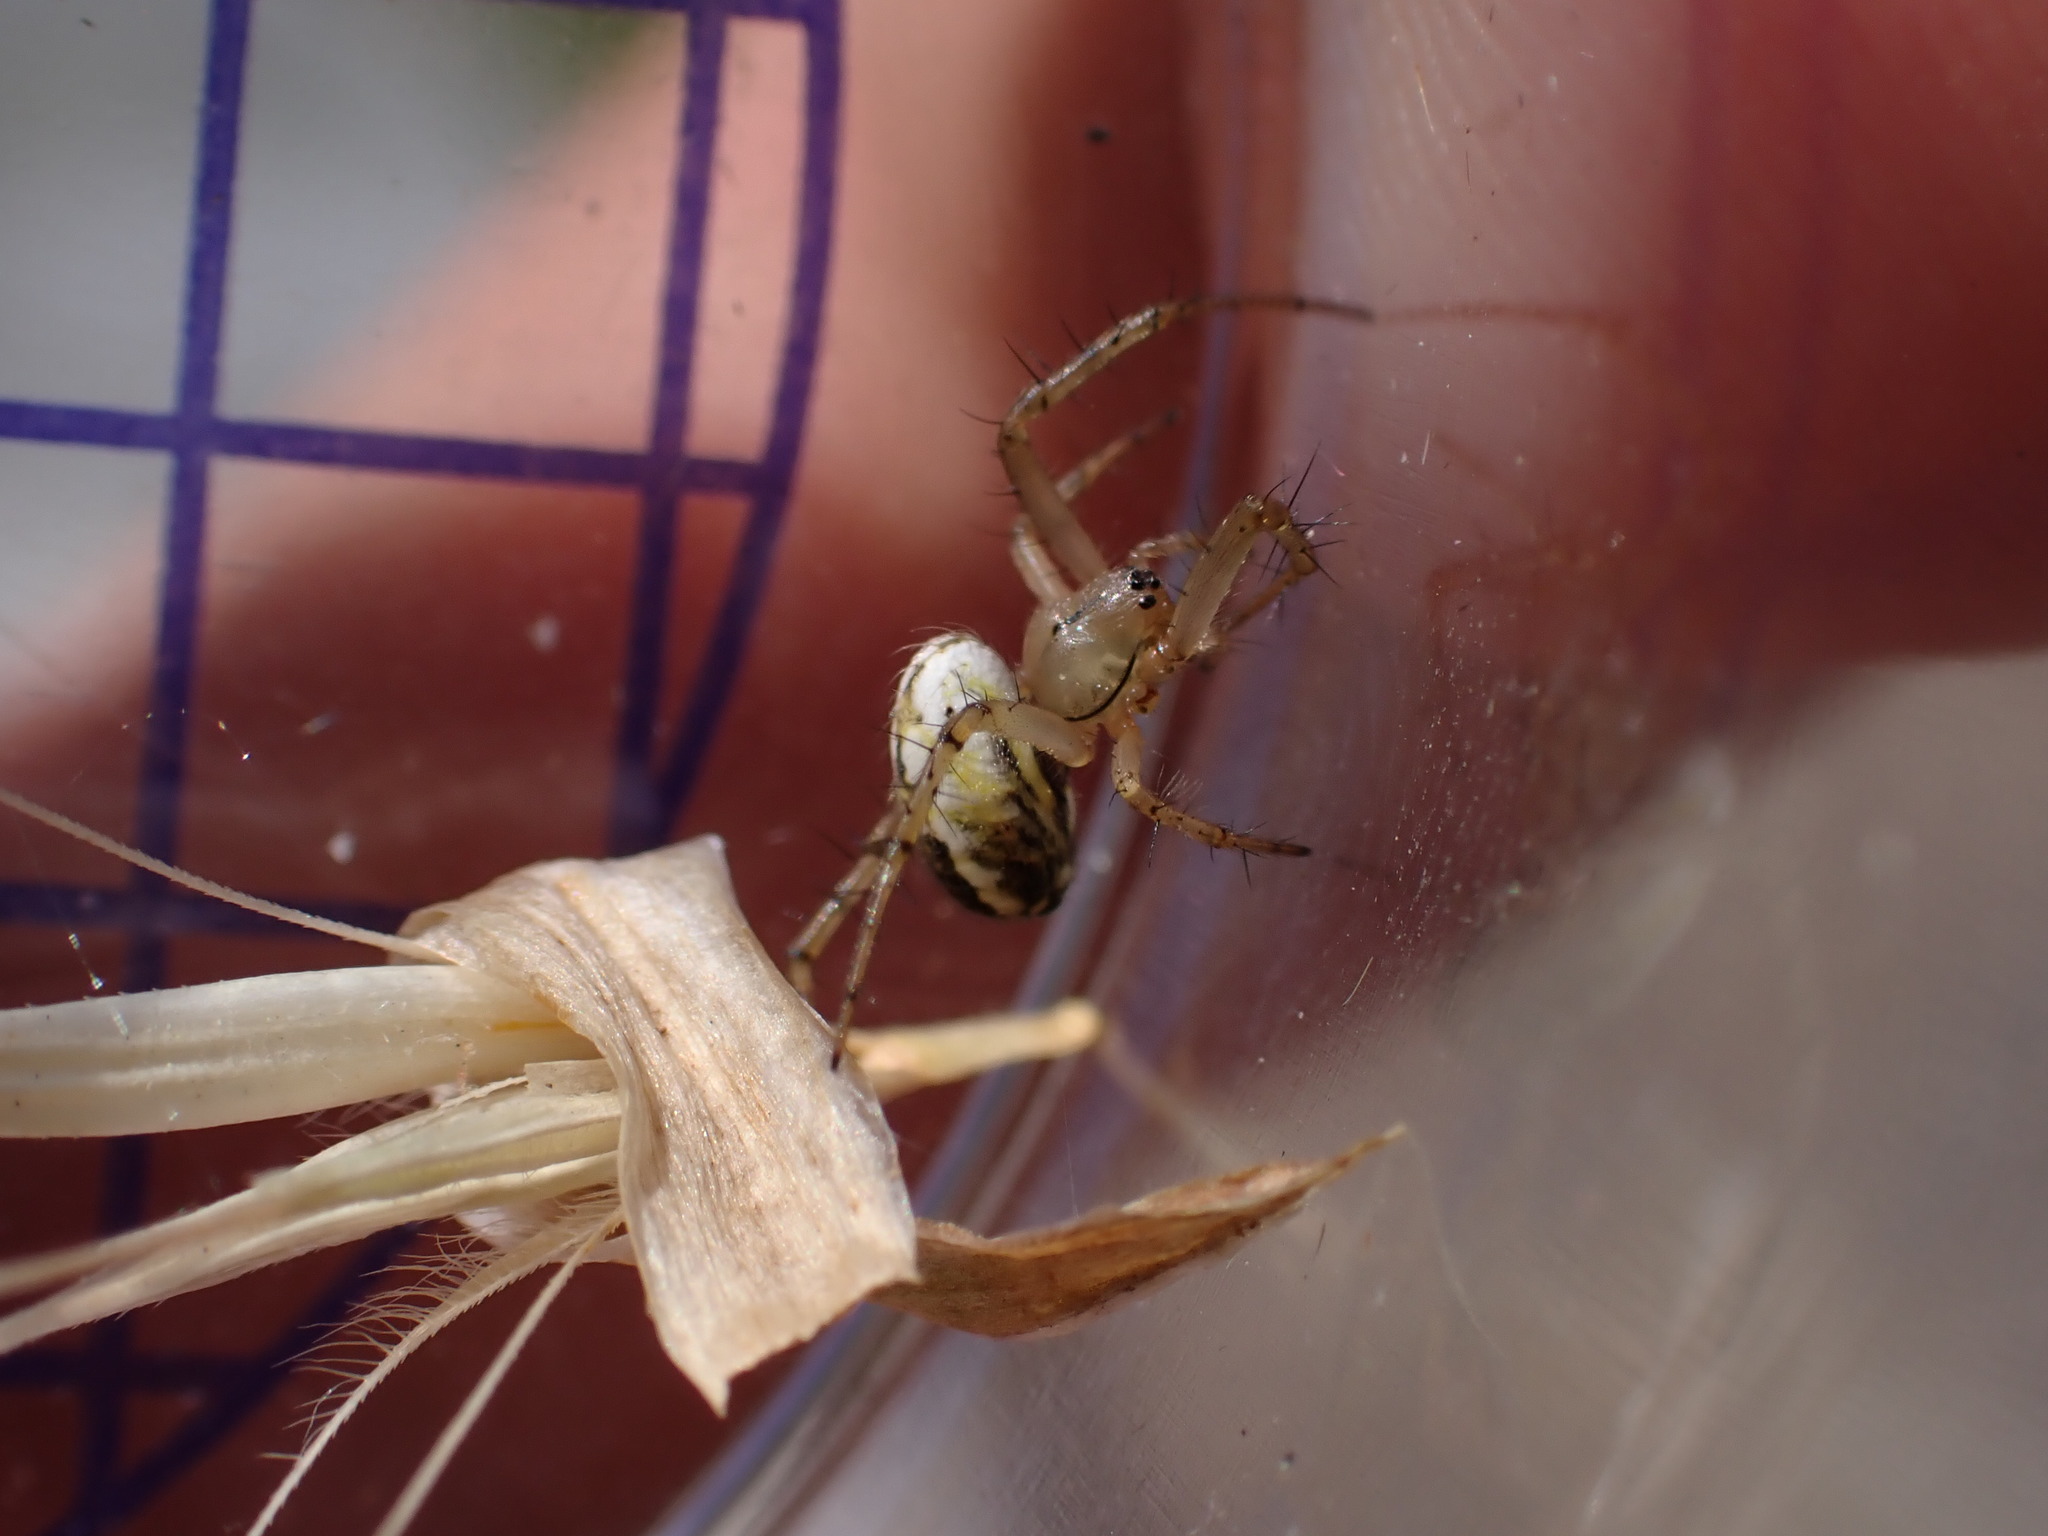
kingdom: Animalia
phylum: Arthropoda
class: Arachnida
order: Araneae
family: Araneidae
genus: Mangora
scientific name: Mangora acalypha
